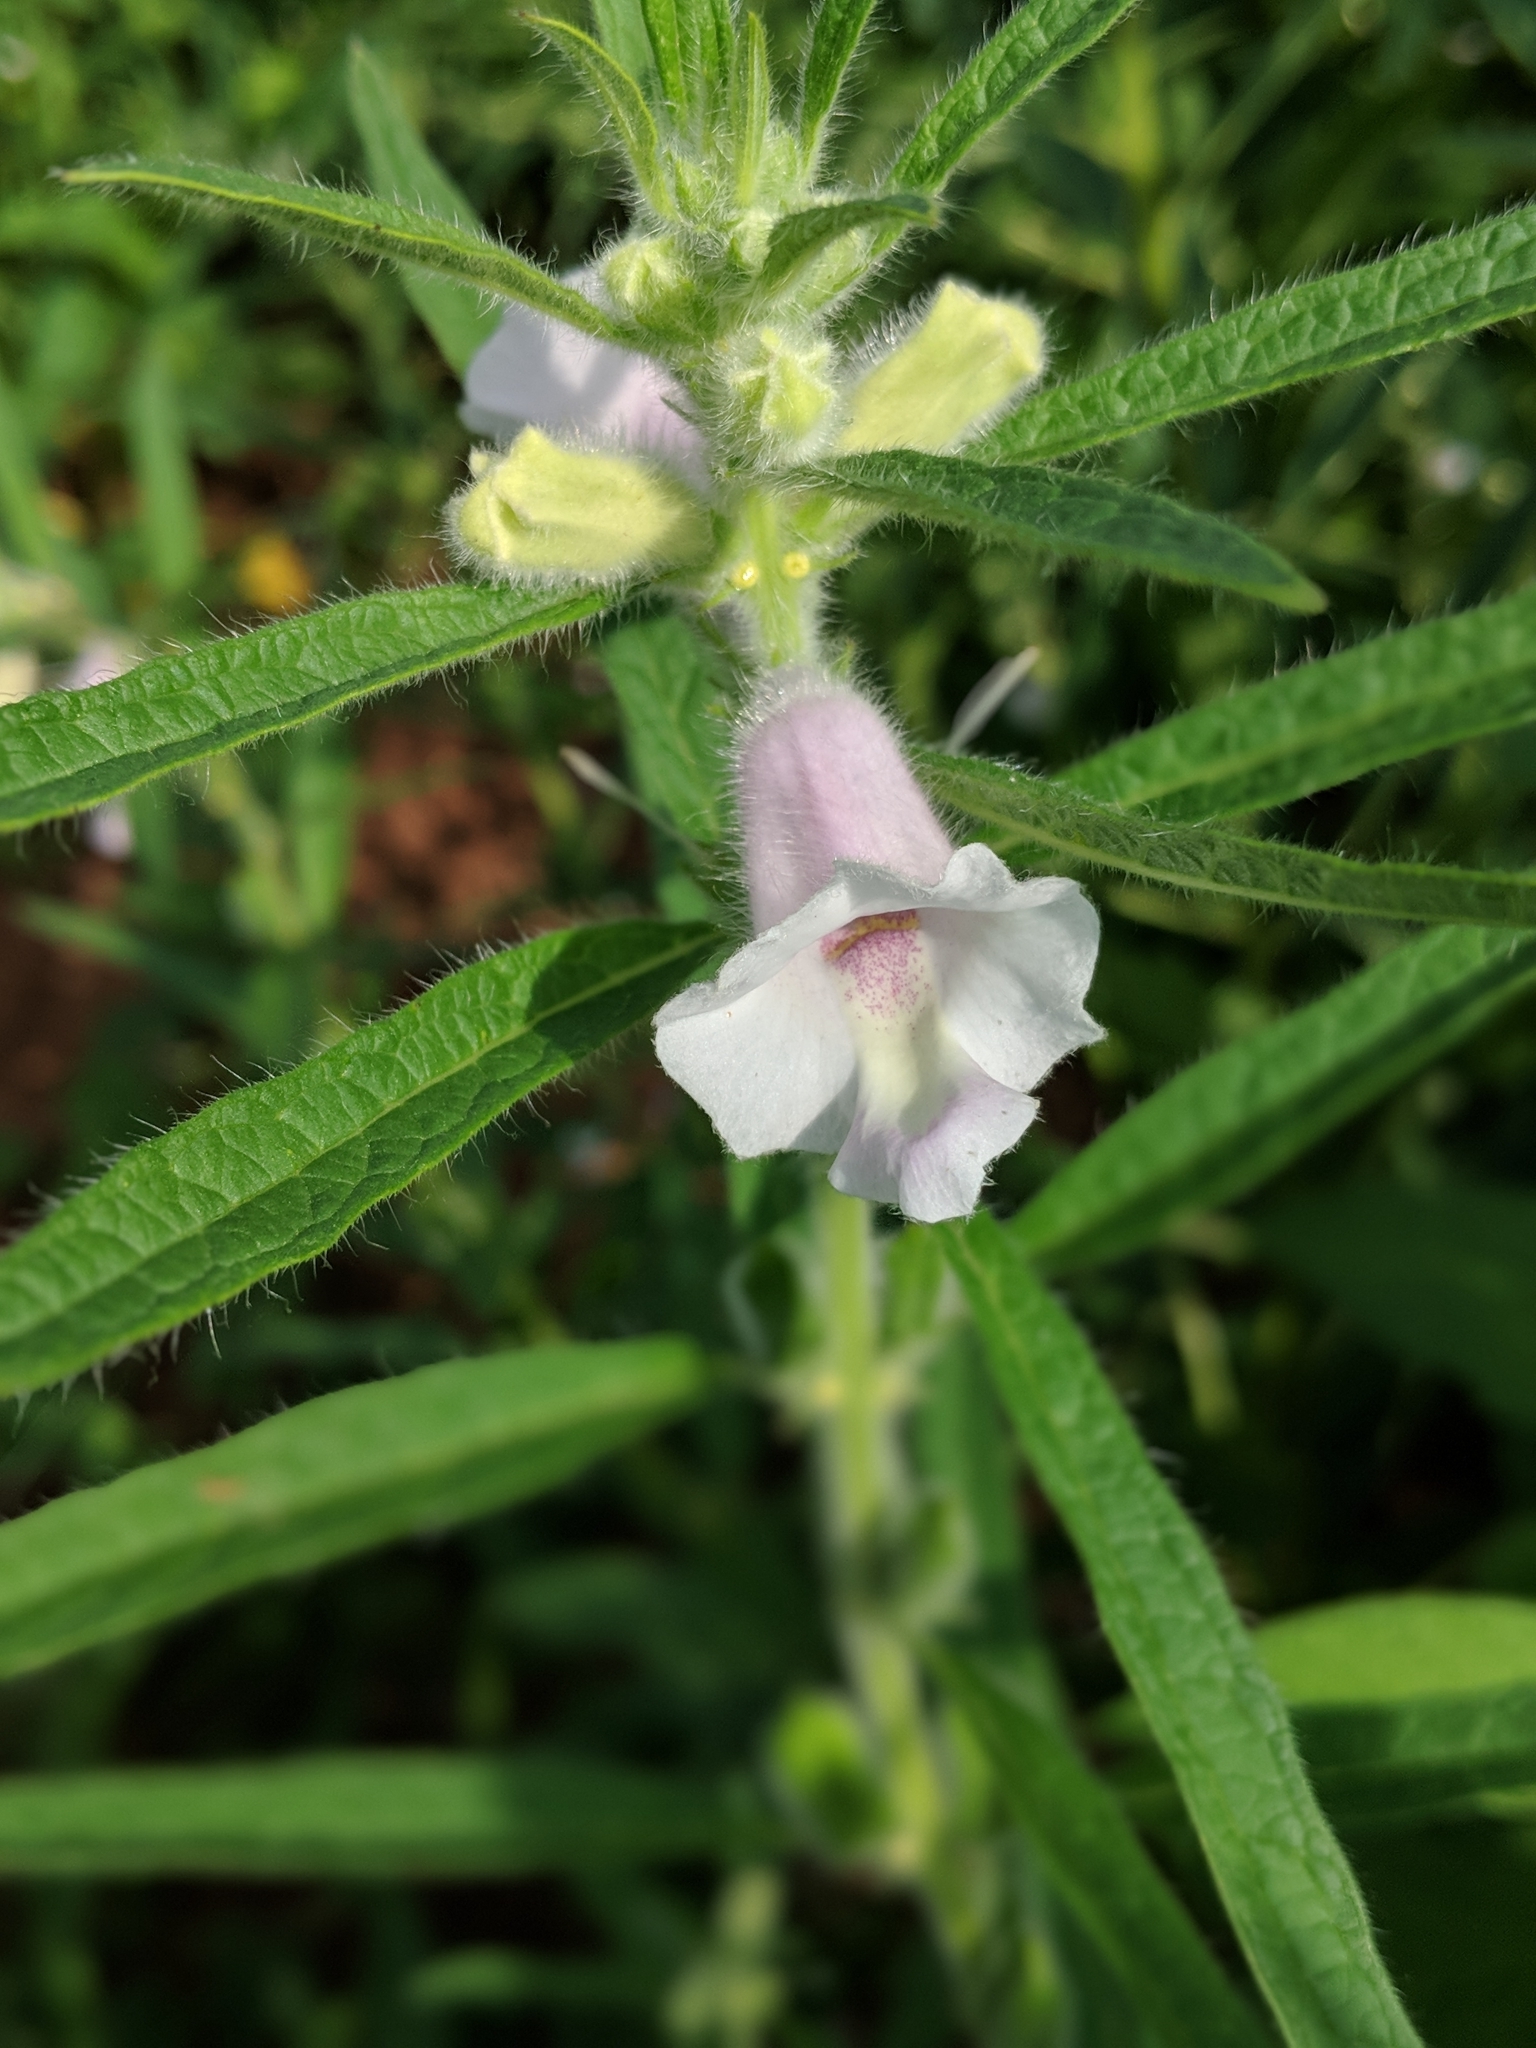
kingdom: Plantae
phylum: Tracheophyta
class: Magnoliopsida
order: Lamiales
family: Pedaliaceae
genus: Sesamum
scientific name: Sesamum indicum
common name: Sesame
